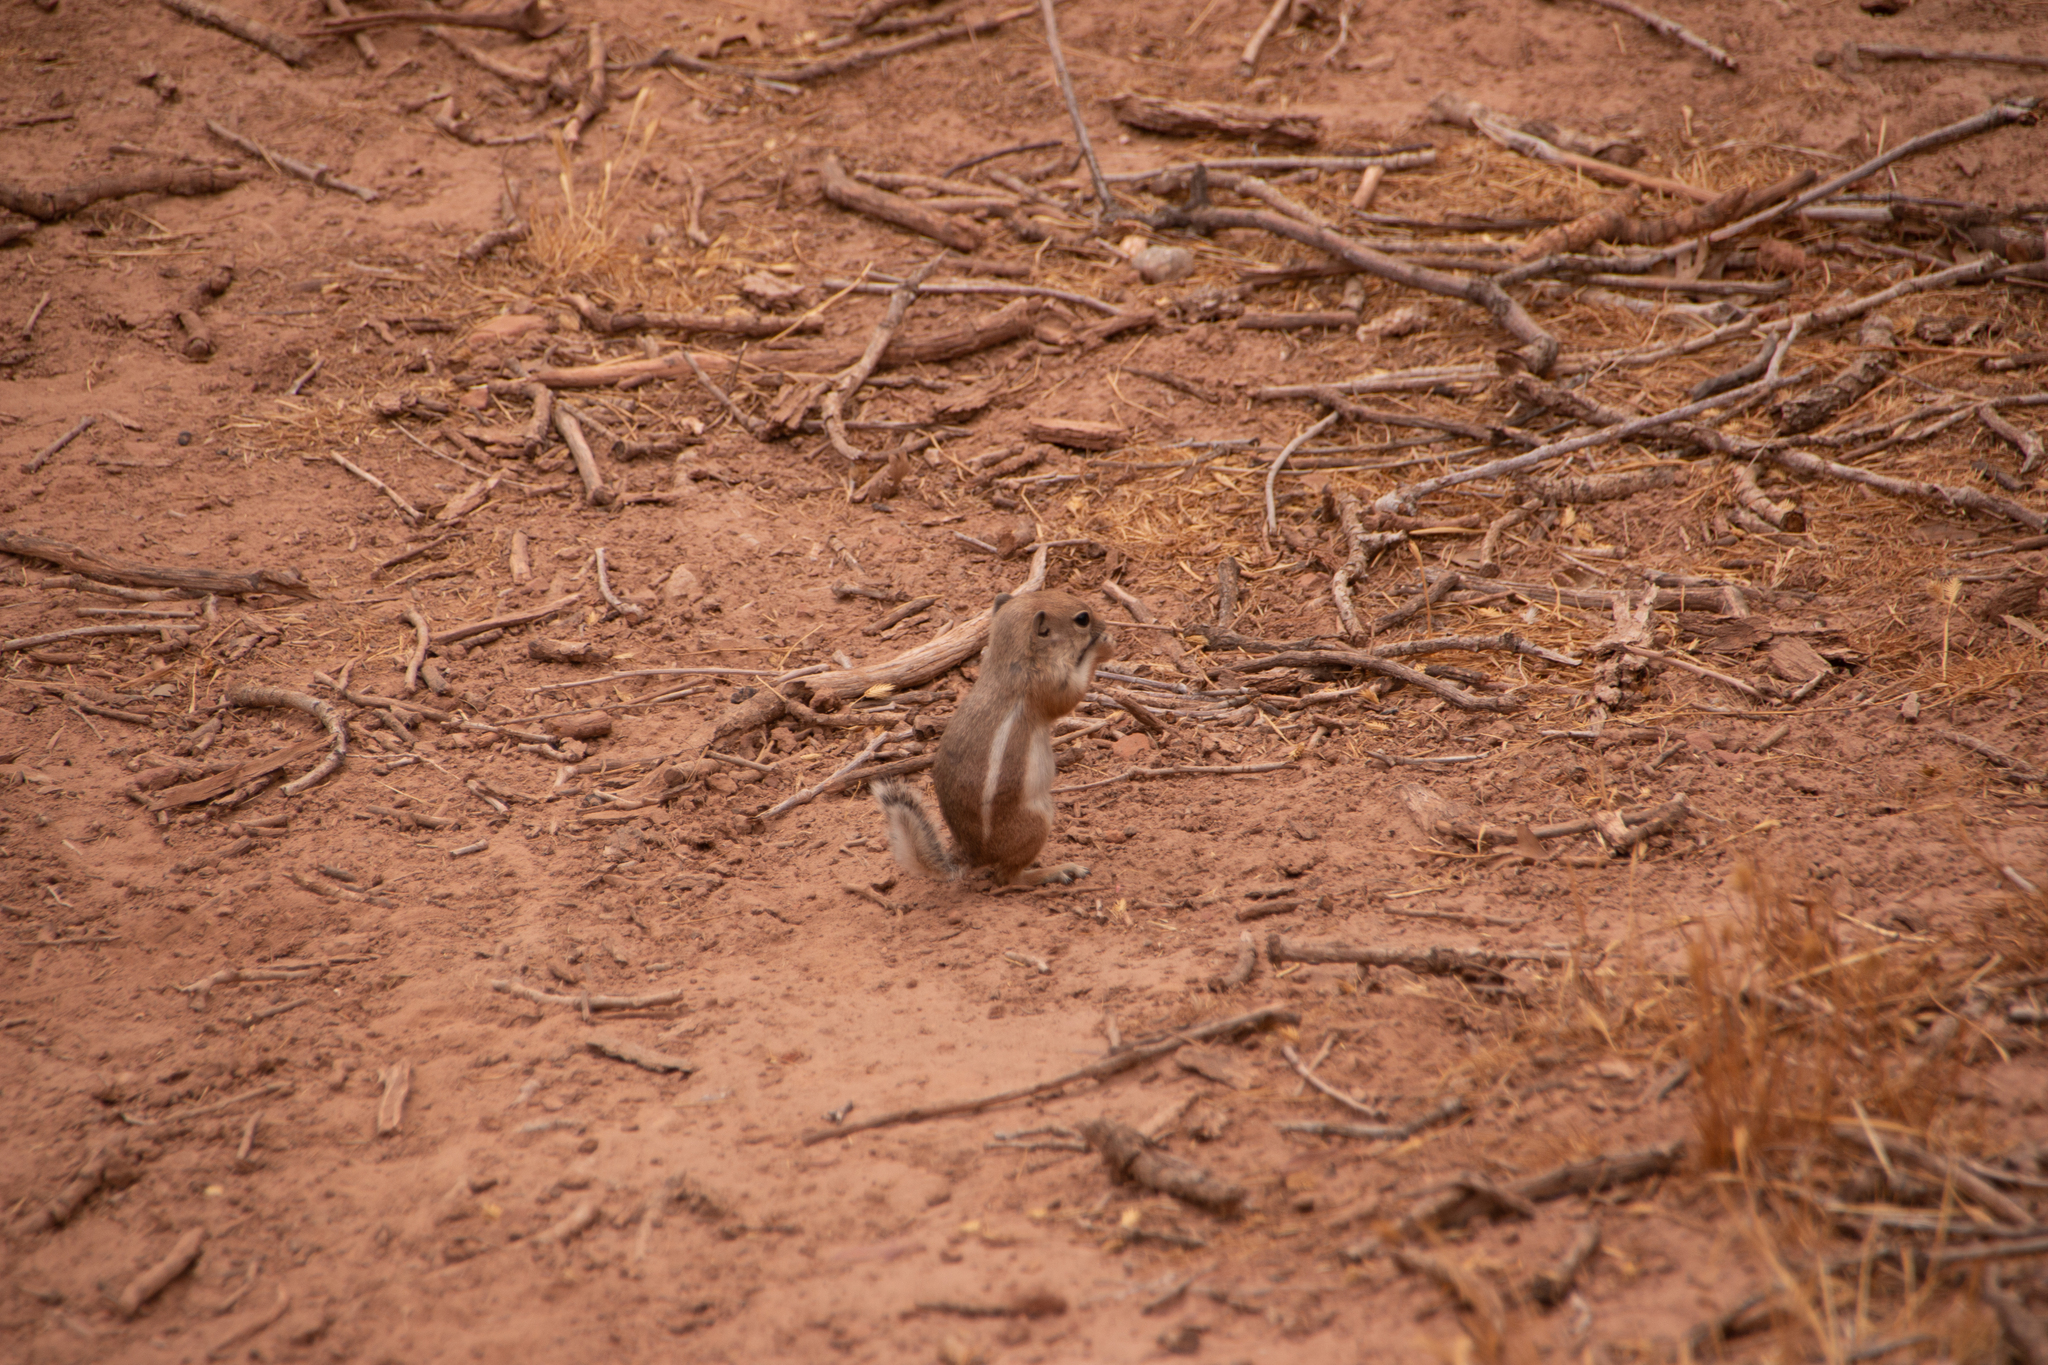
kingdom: Animalia
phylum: Chordata
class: Mammalia
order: Rodentia
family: Sciuridae
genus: Ammospermophilus
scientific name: Ammospermophilus leucurus
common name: White-tailed antelope squirrel
